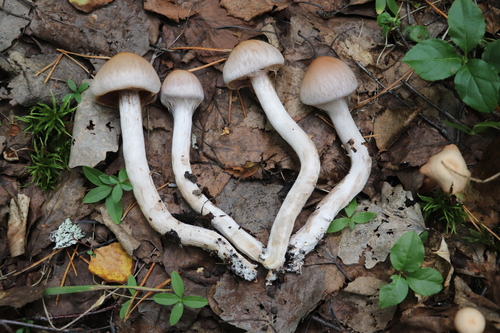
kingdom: Fungi
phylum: Basidiomycota
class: Agaricomycetes
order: Agaricales
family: Cortinariaceae
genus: Cortinarius
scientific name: Cortinarius
